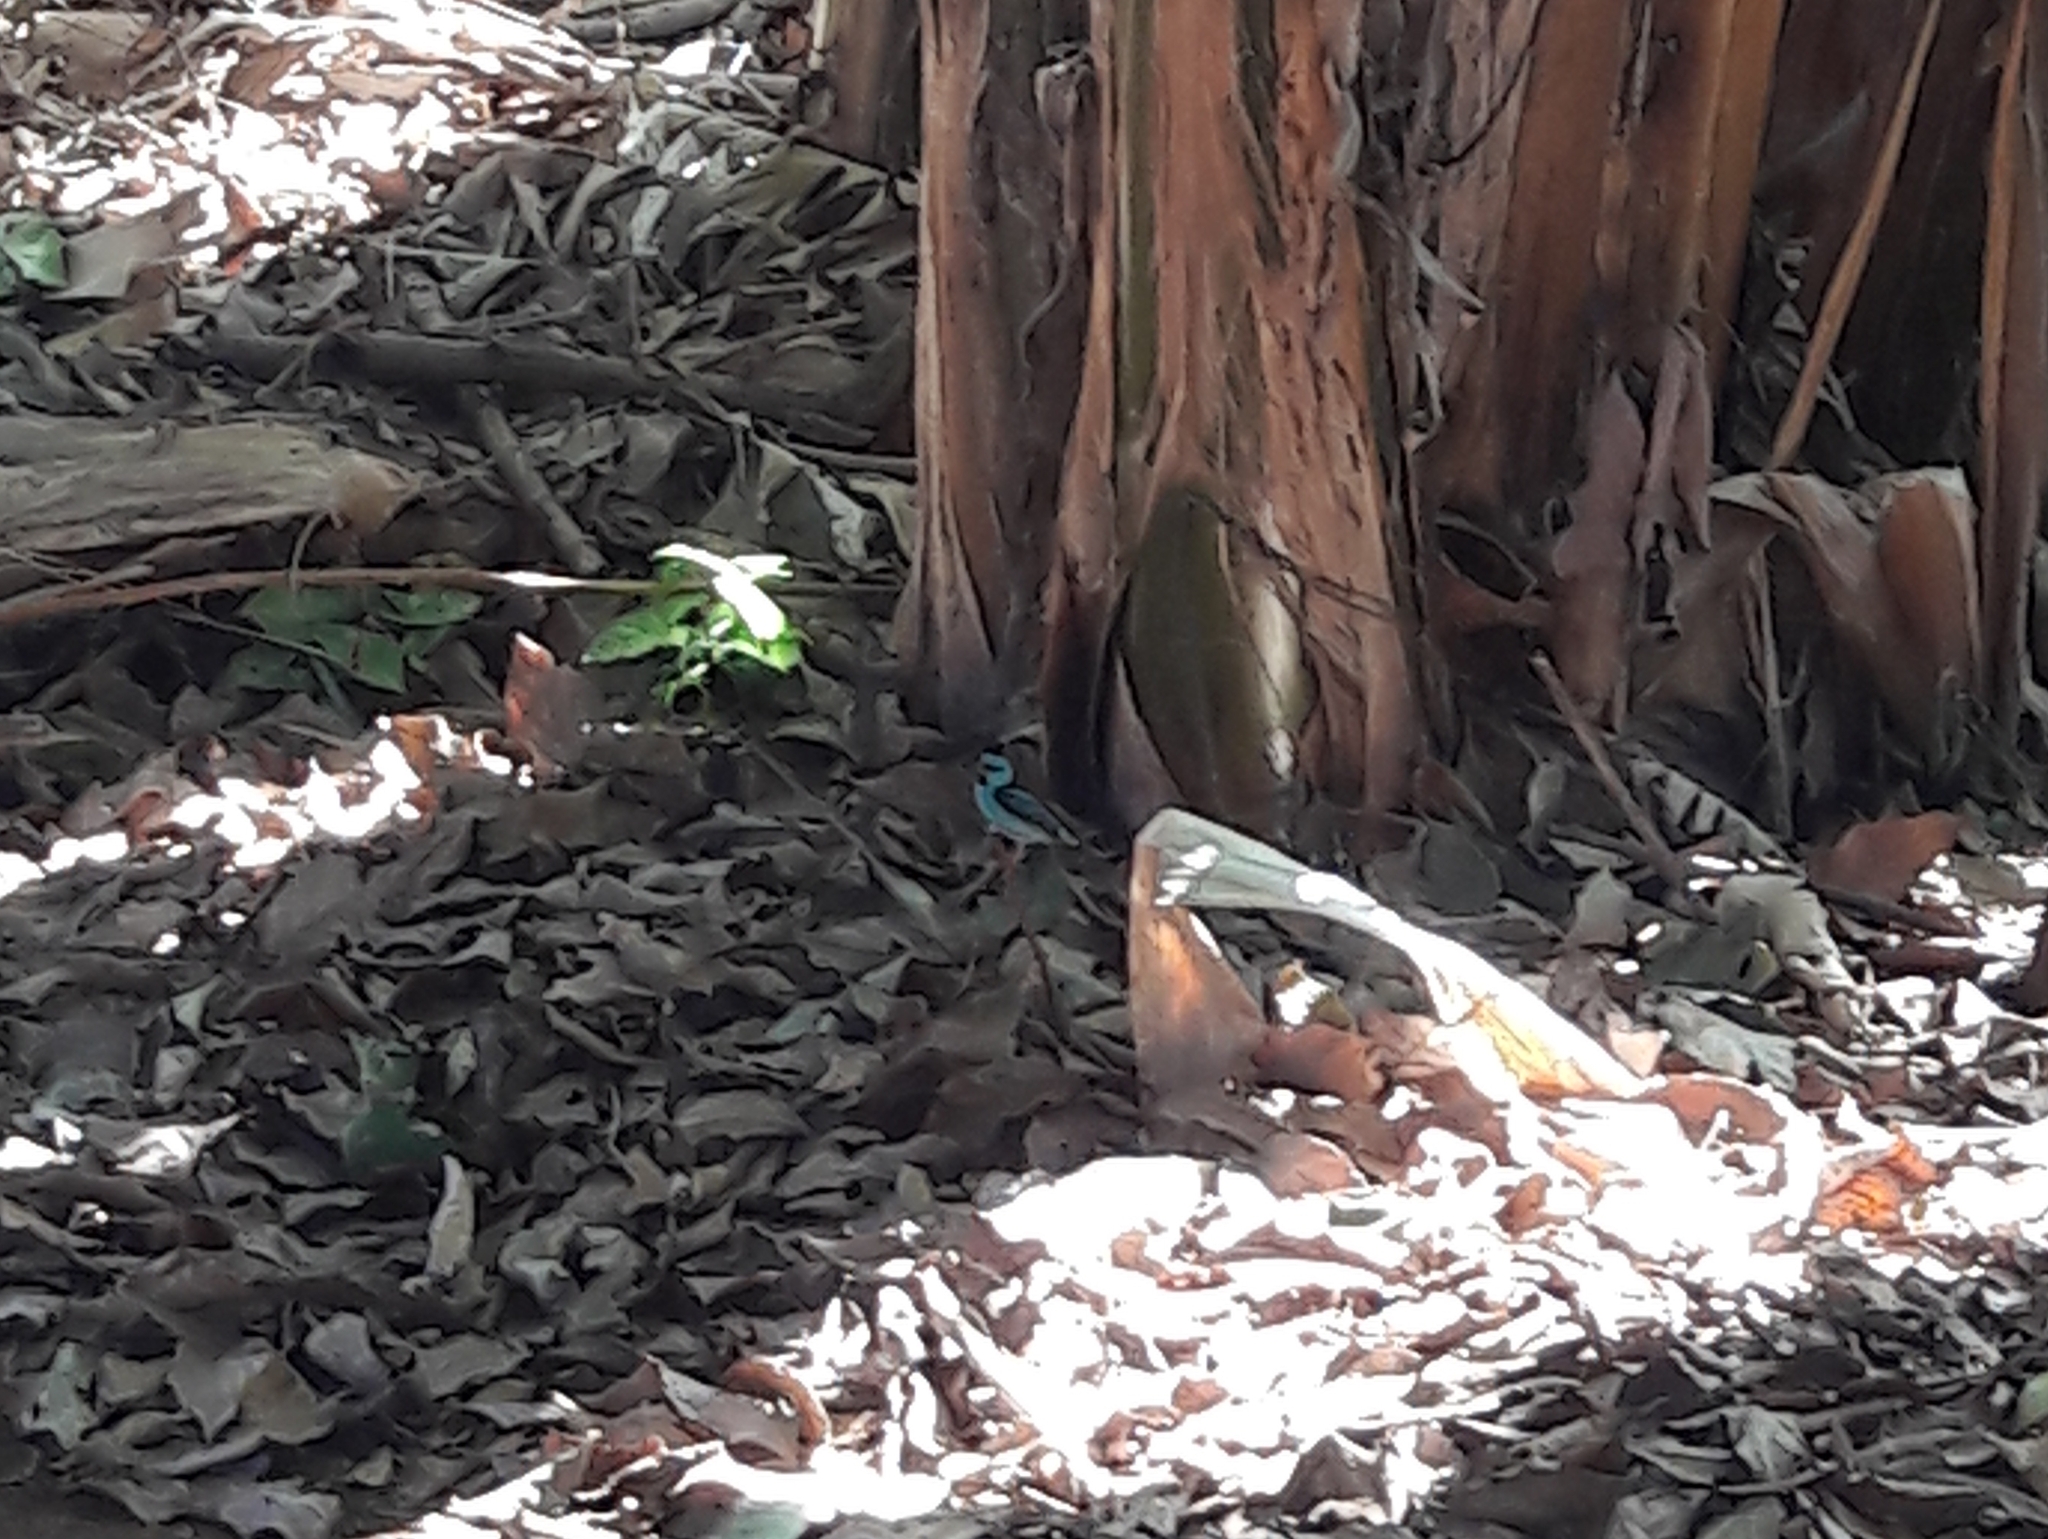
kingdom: Animalia
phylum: Chordata
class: Aves
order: Passeriformes
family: Thraupidae
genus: Dacnis
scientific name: Dacnis cayana
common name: Blue dacnis
